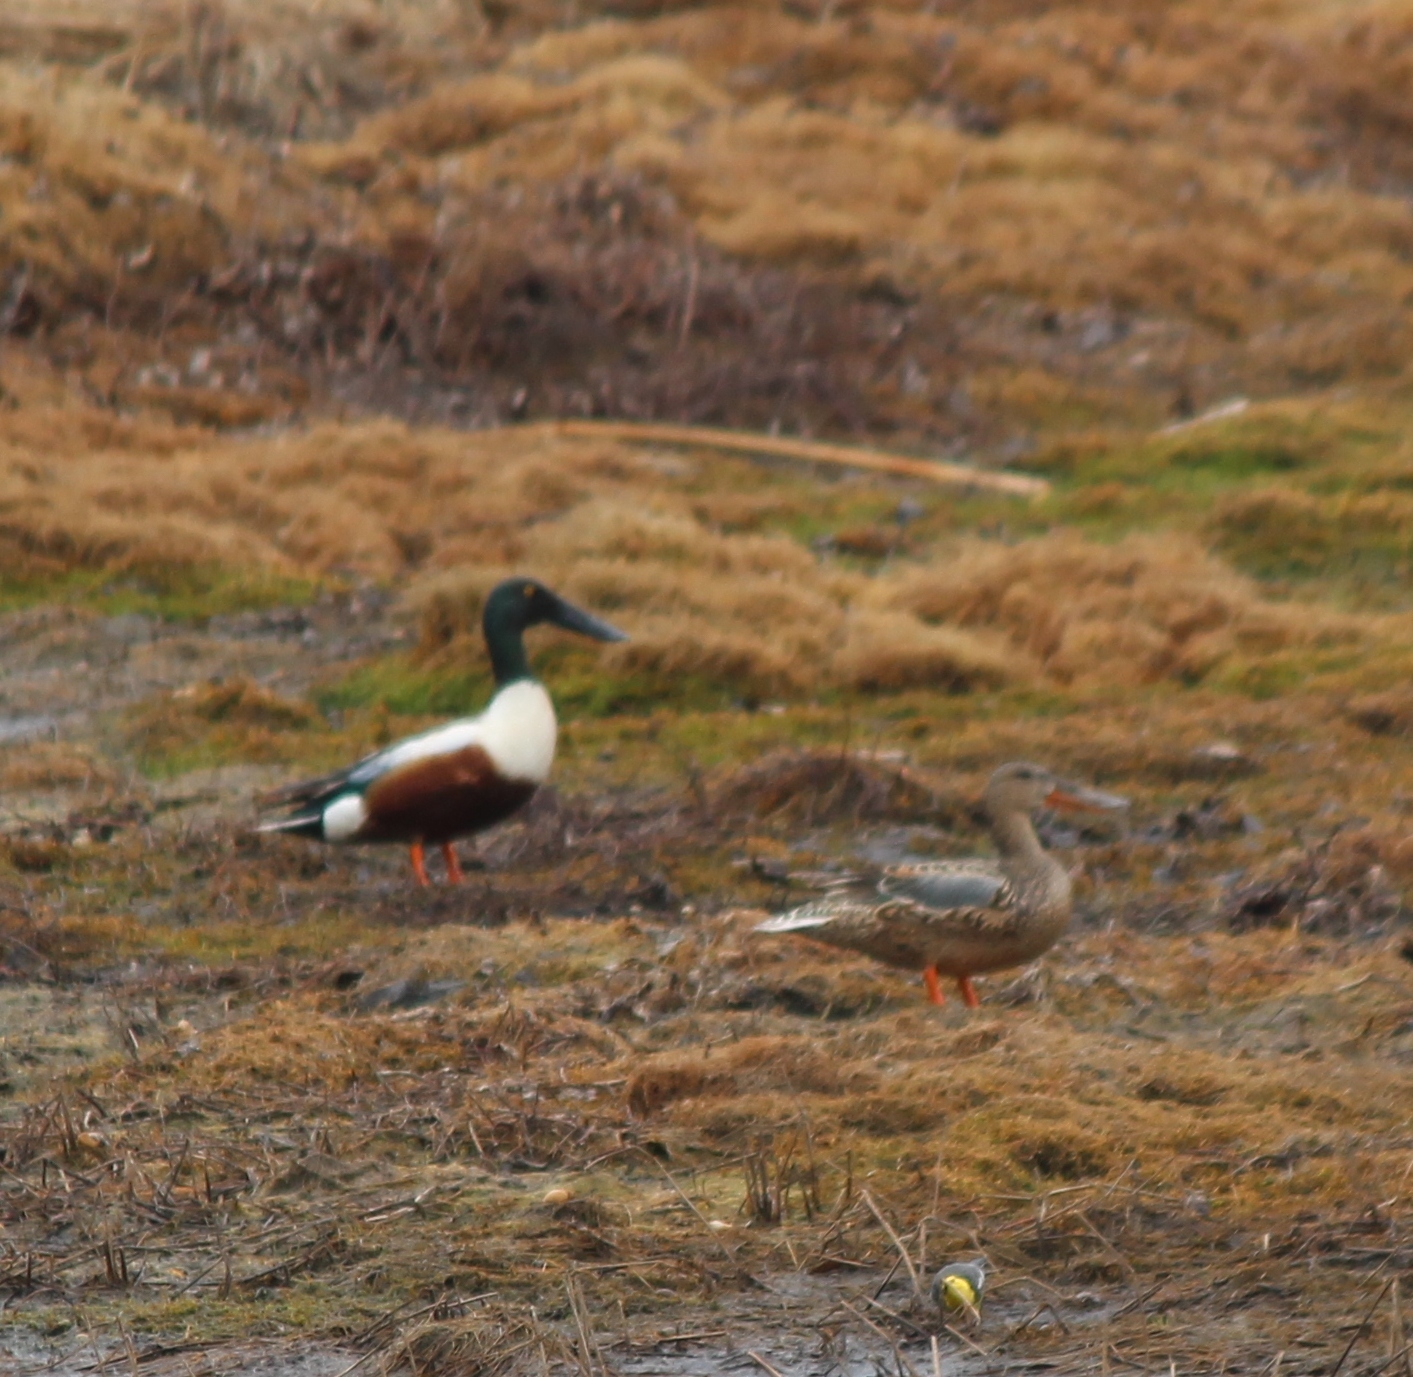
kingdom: Animalia
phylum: Chordata
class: Aves
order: Anseriformes
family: Anatidae
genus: Spatula
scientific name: Spatula clypeata
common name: Northern shoveler
